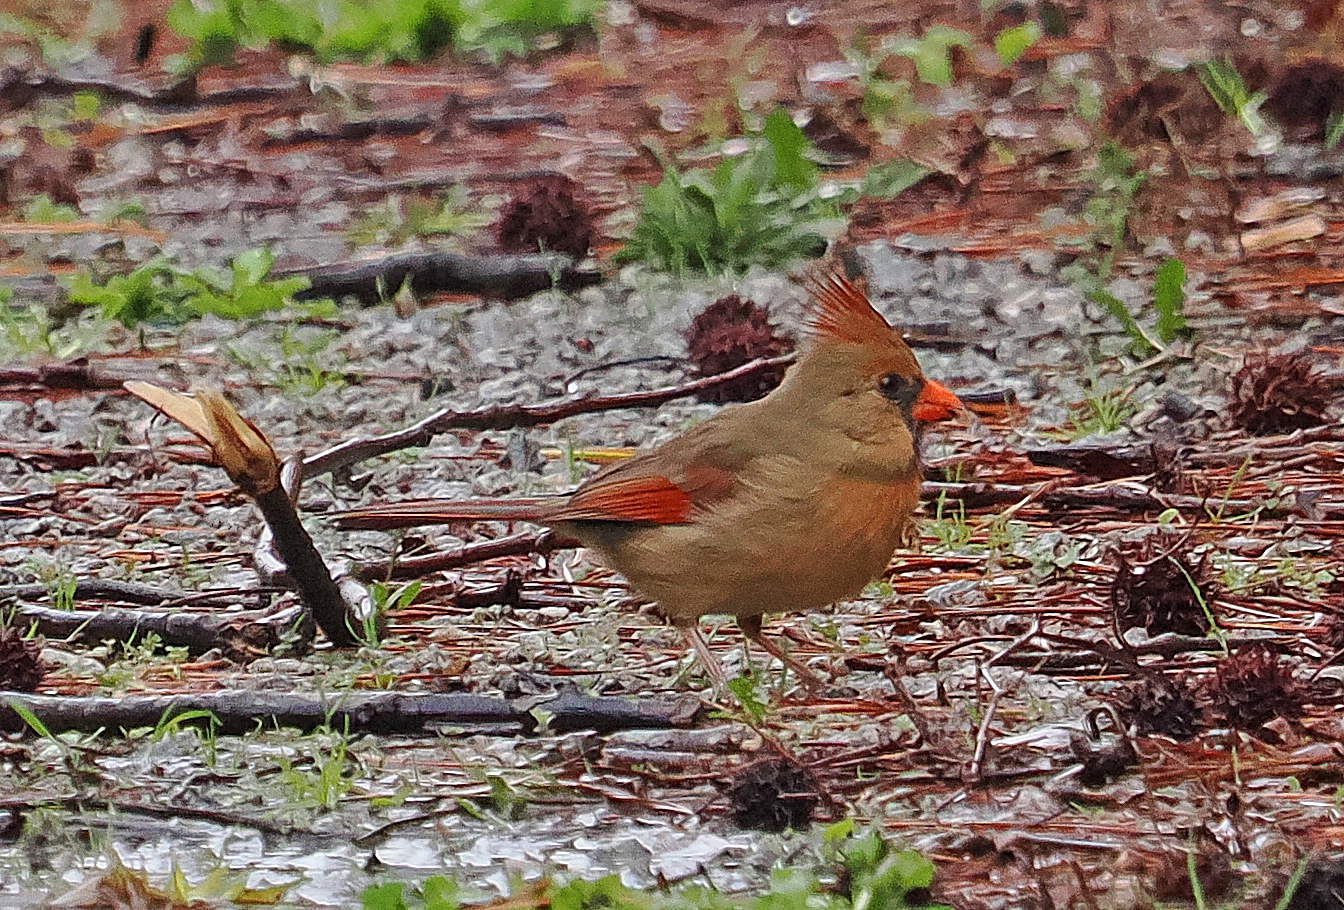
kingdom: Animalia
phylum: Chordata
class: Aves
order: Passeriformes
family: Cardinalidae
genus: Cardinalis
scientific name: Cardinalis cardinalis
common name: Northern cardinal
